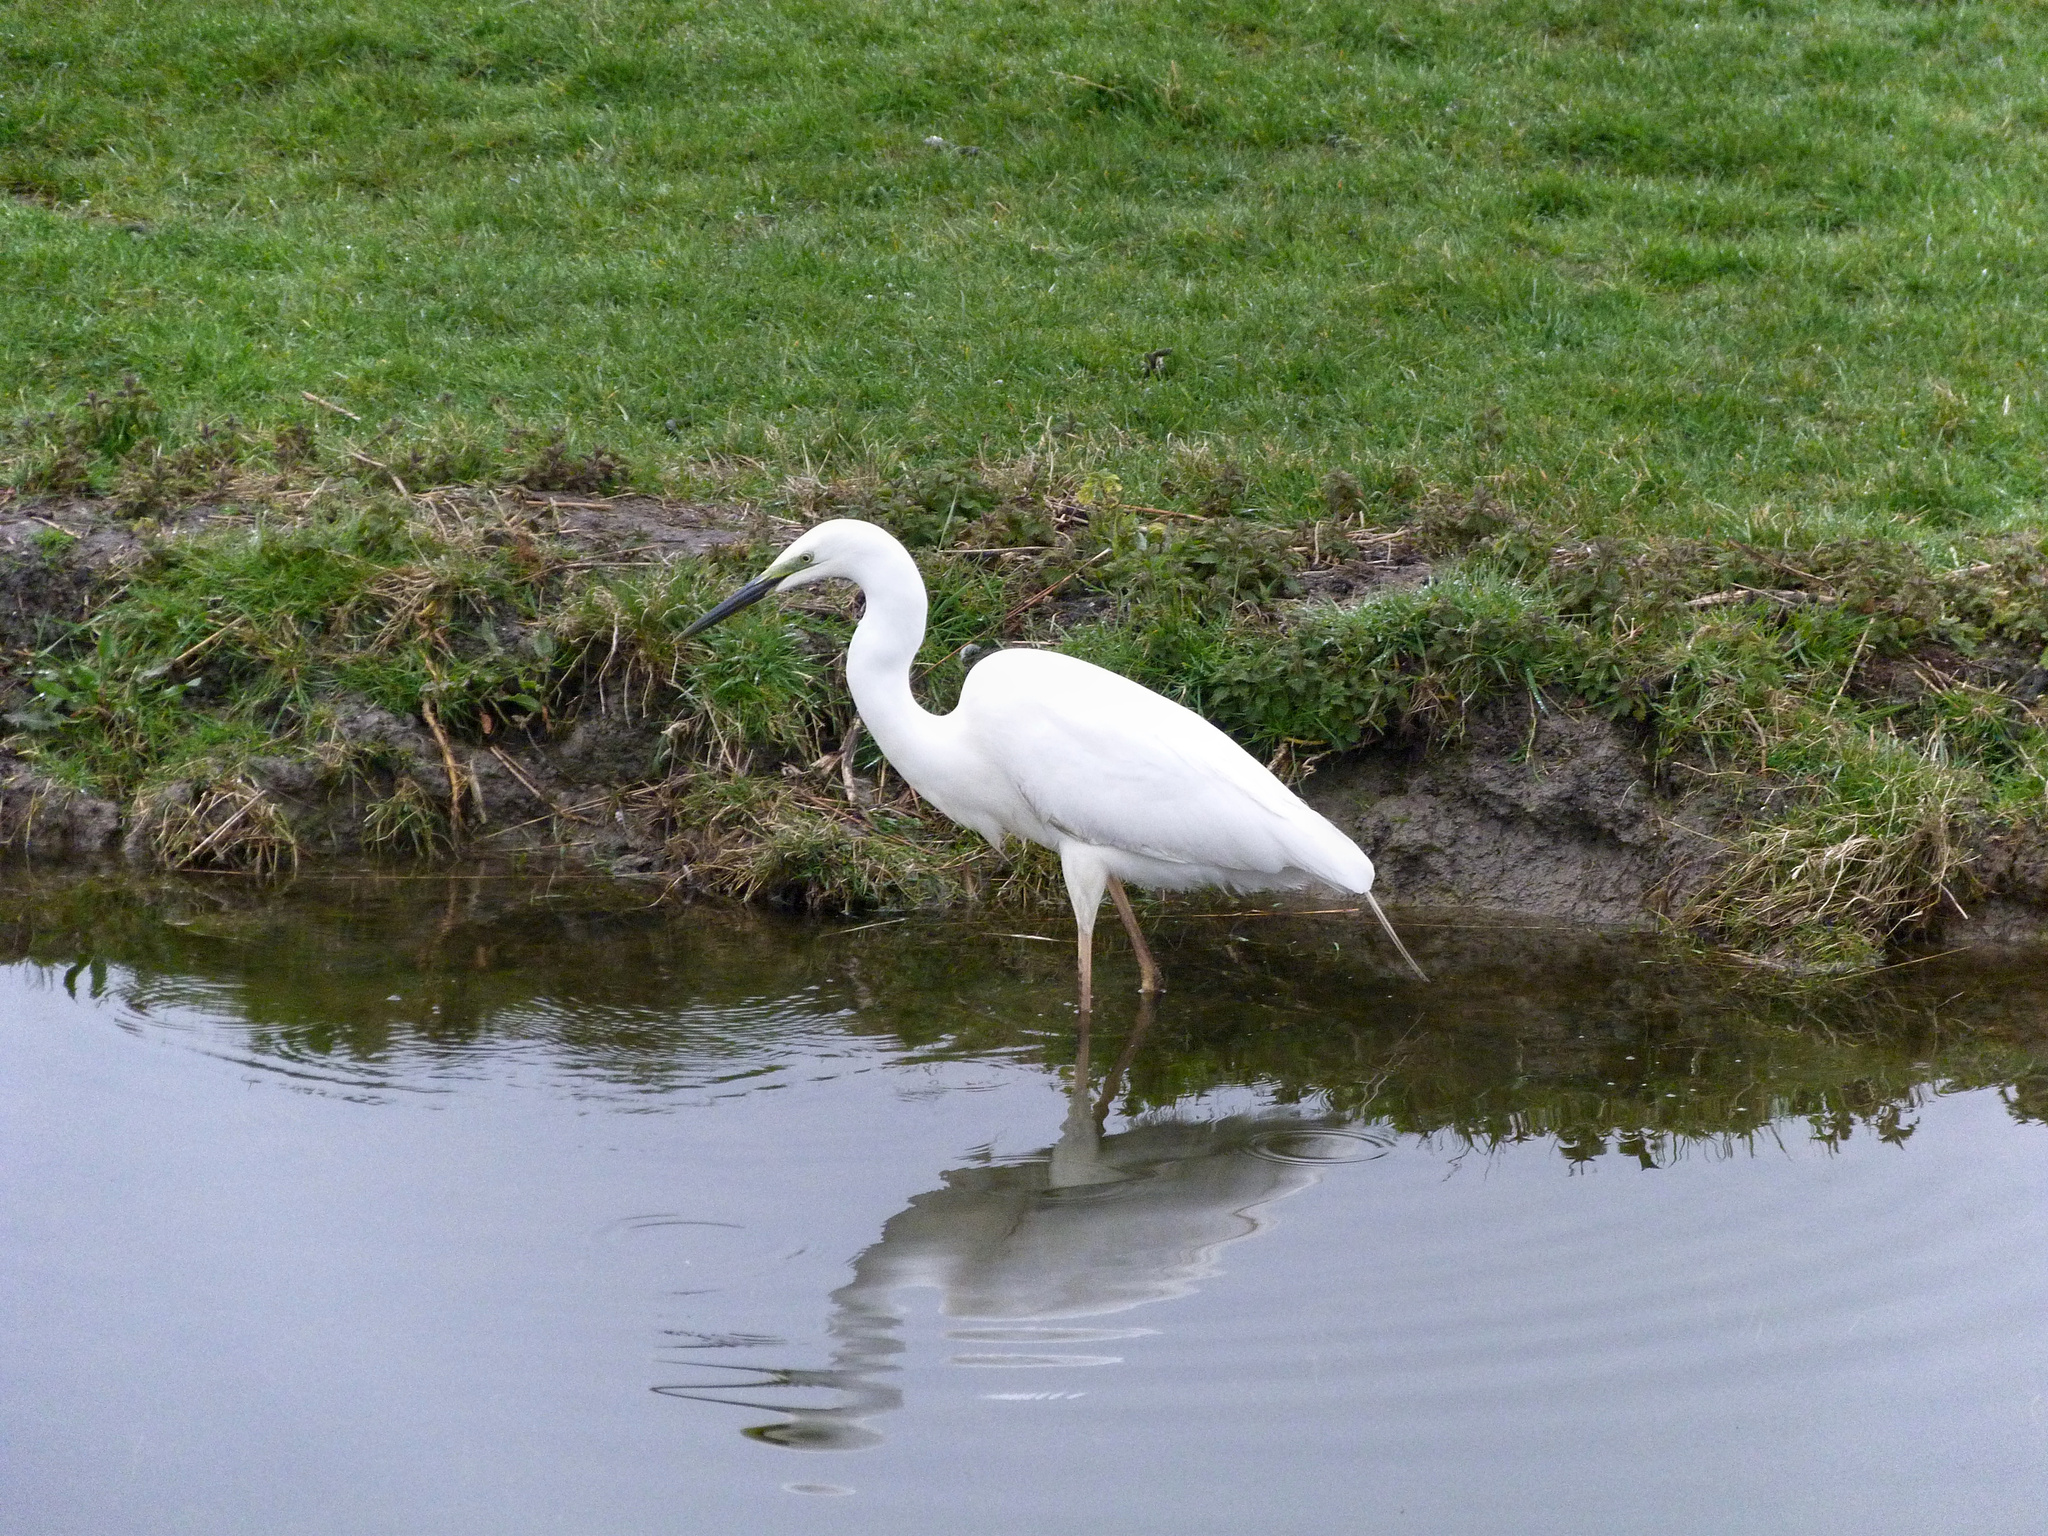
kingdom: Animalia
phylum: Chordata
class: Aves
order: Pelecaniformes
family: Ardeidae
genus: Egretta
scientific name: Egretta garzetta
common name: Little egret
